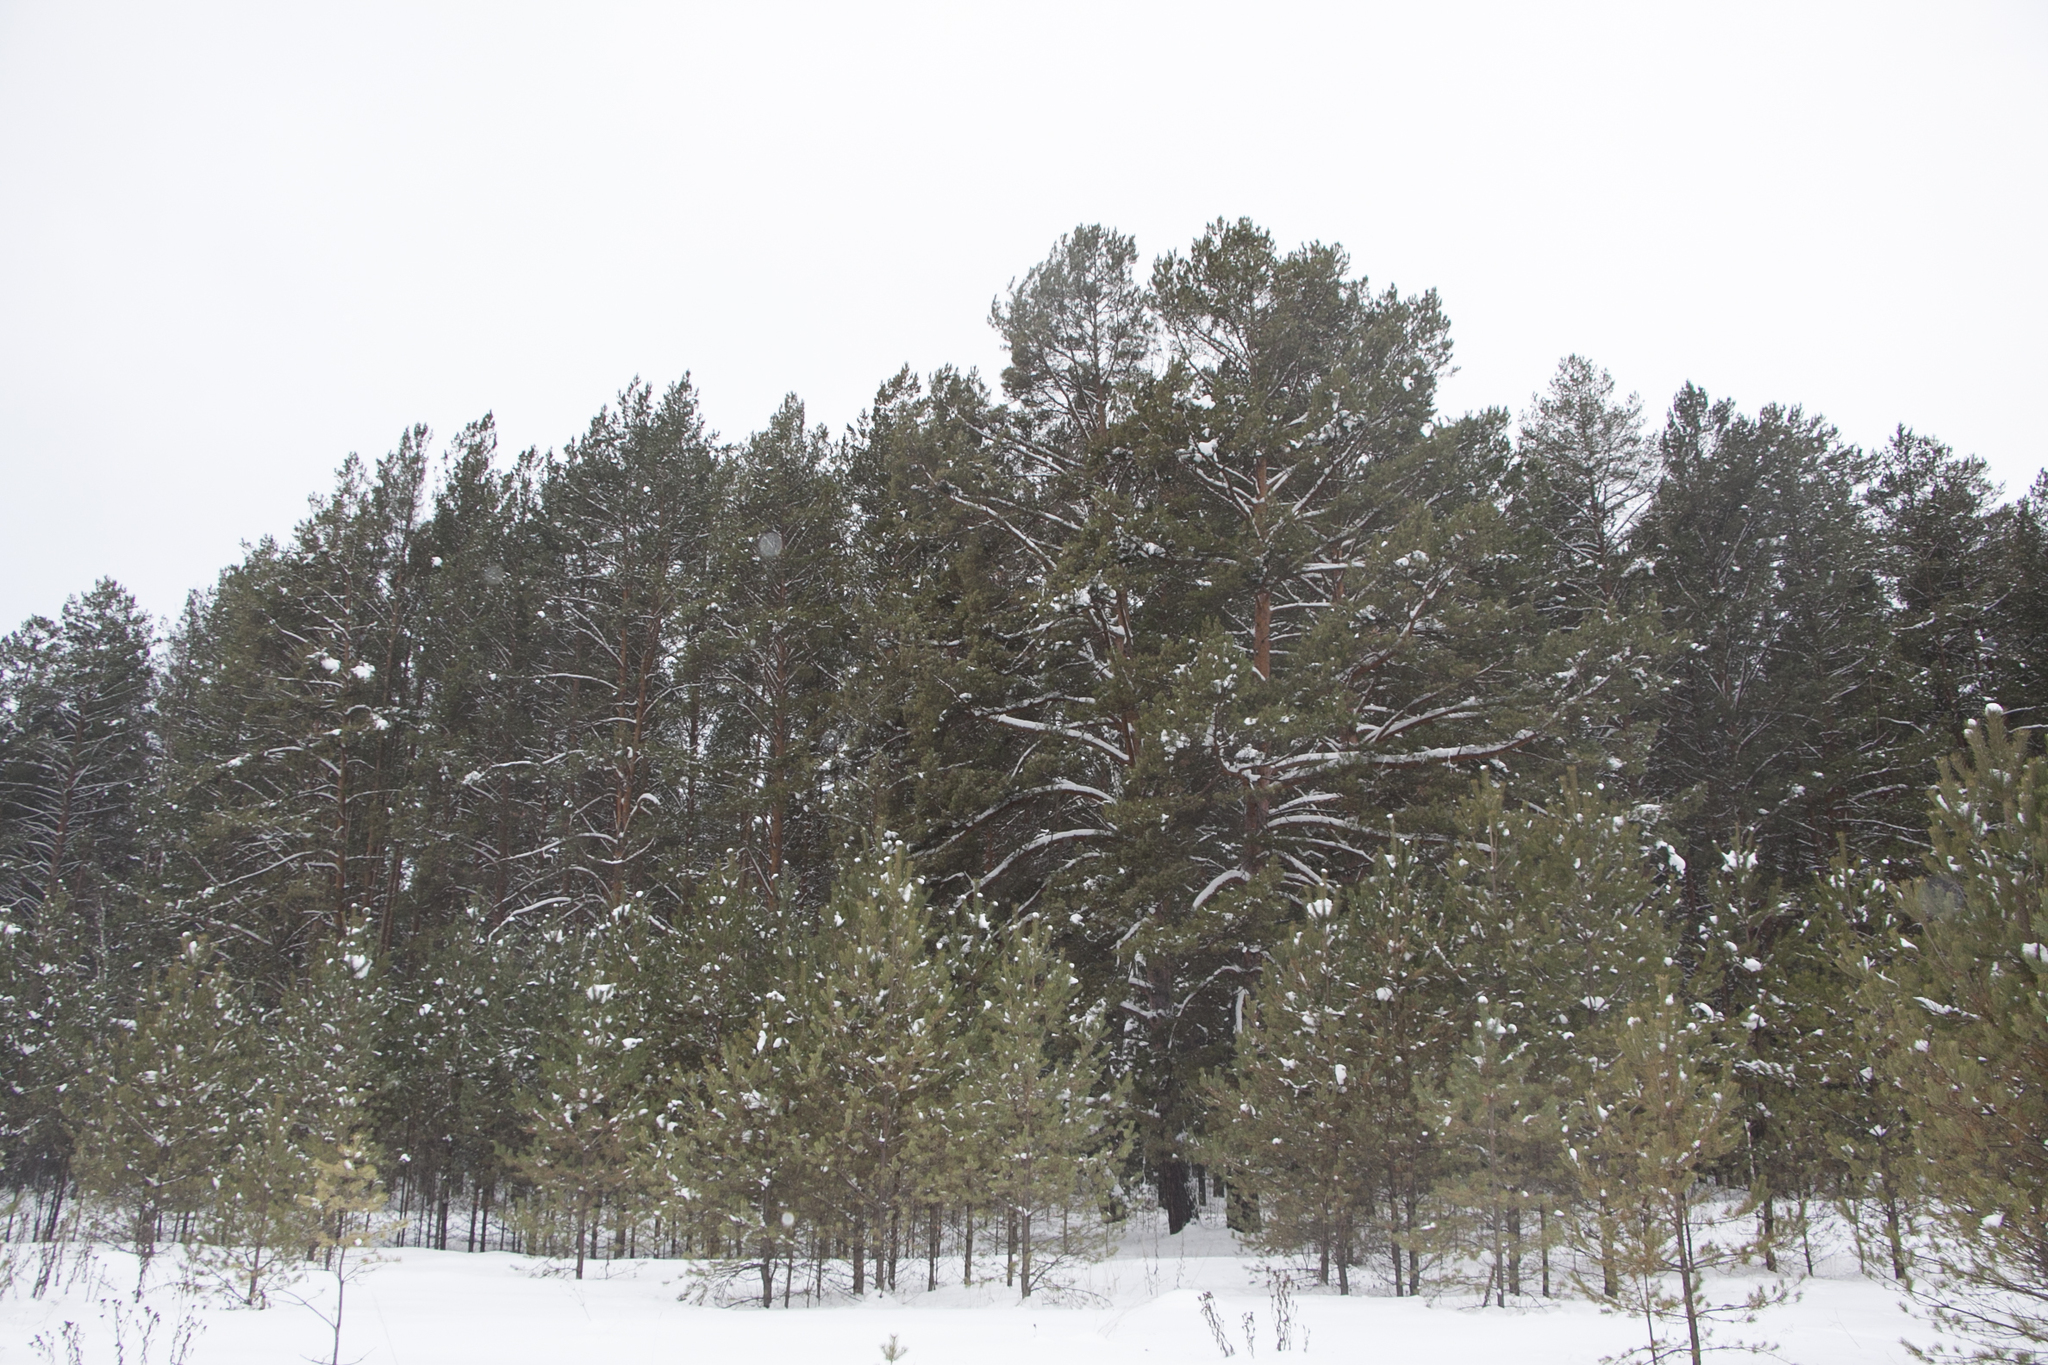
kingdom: Plantae
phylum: Tracheophyta
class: Pinopsida
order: Pinales
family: Pinaceae
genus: Pinus
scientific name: Pinus sylvestris
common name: Scots pine
